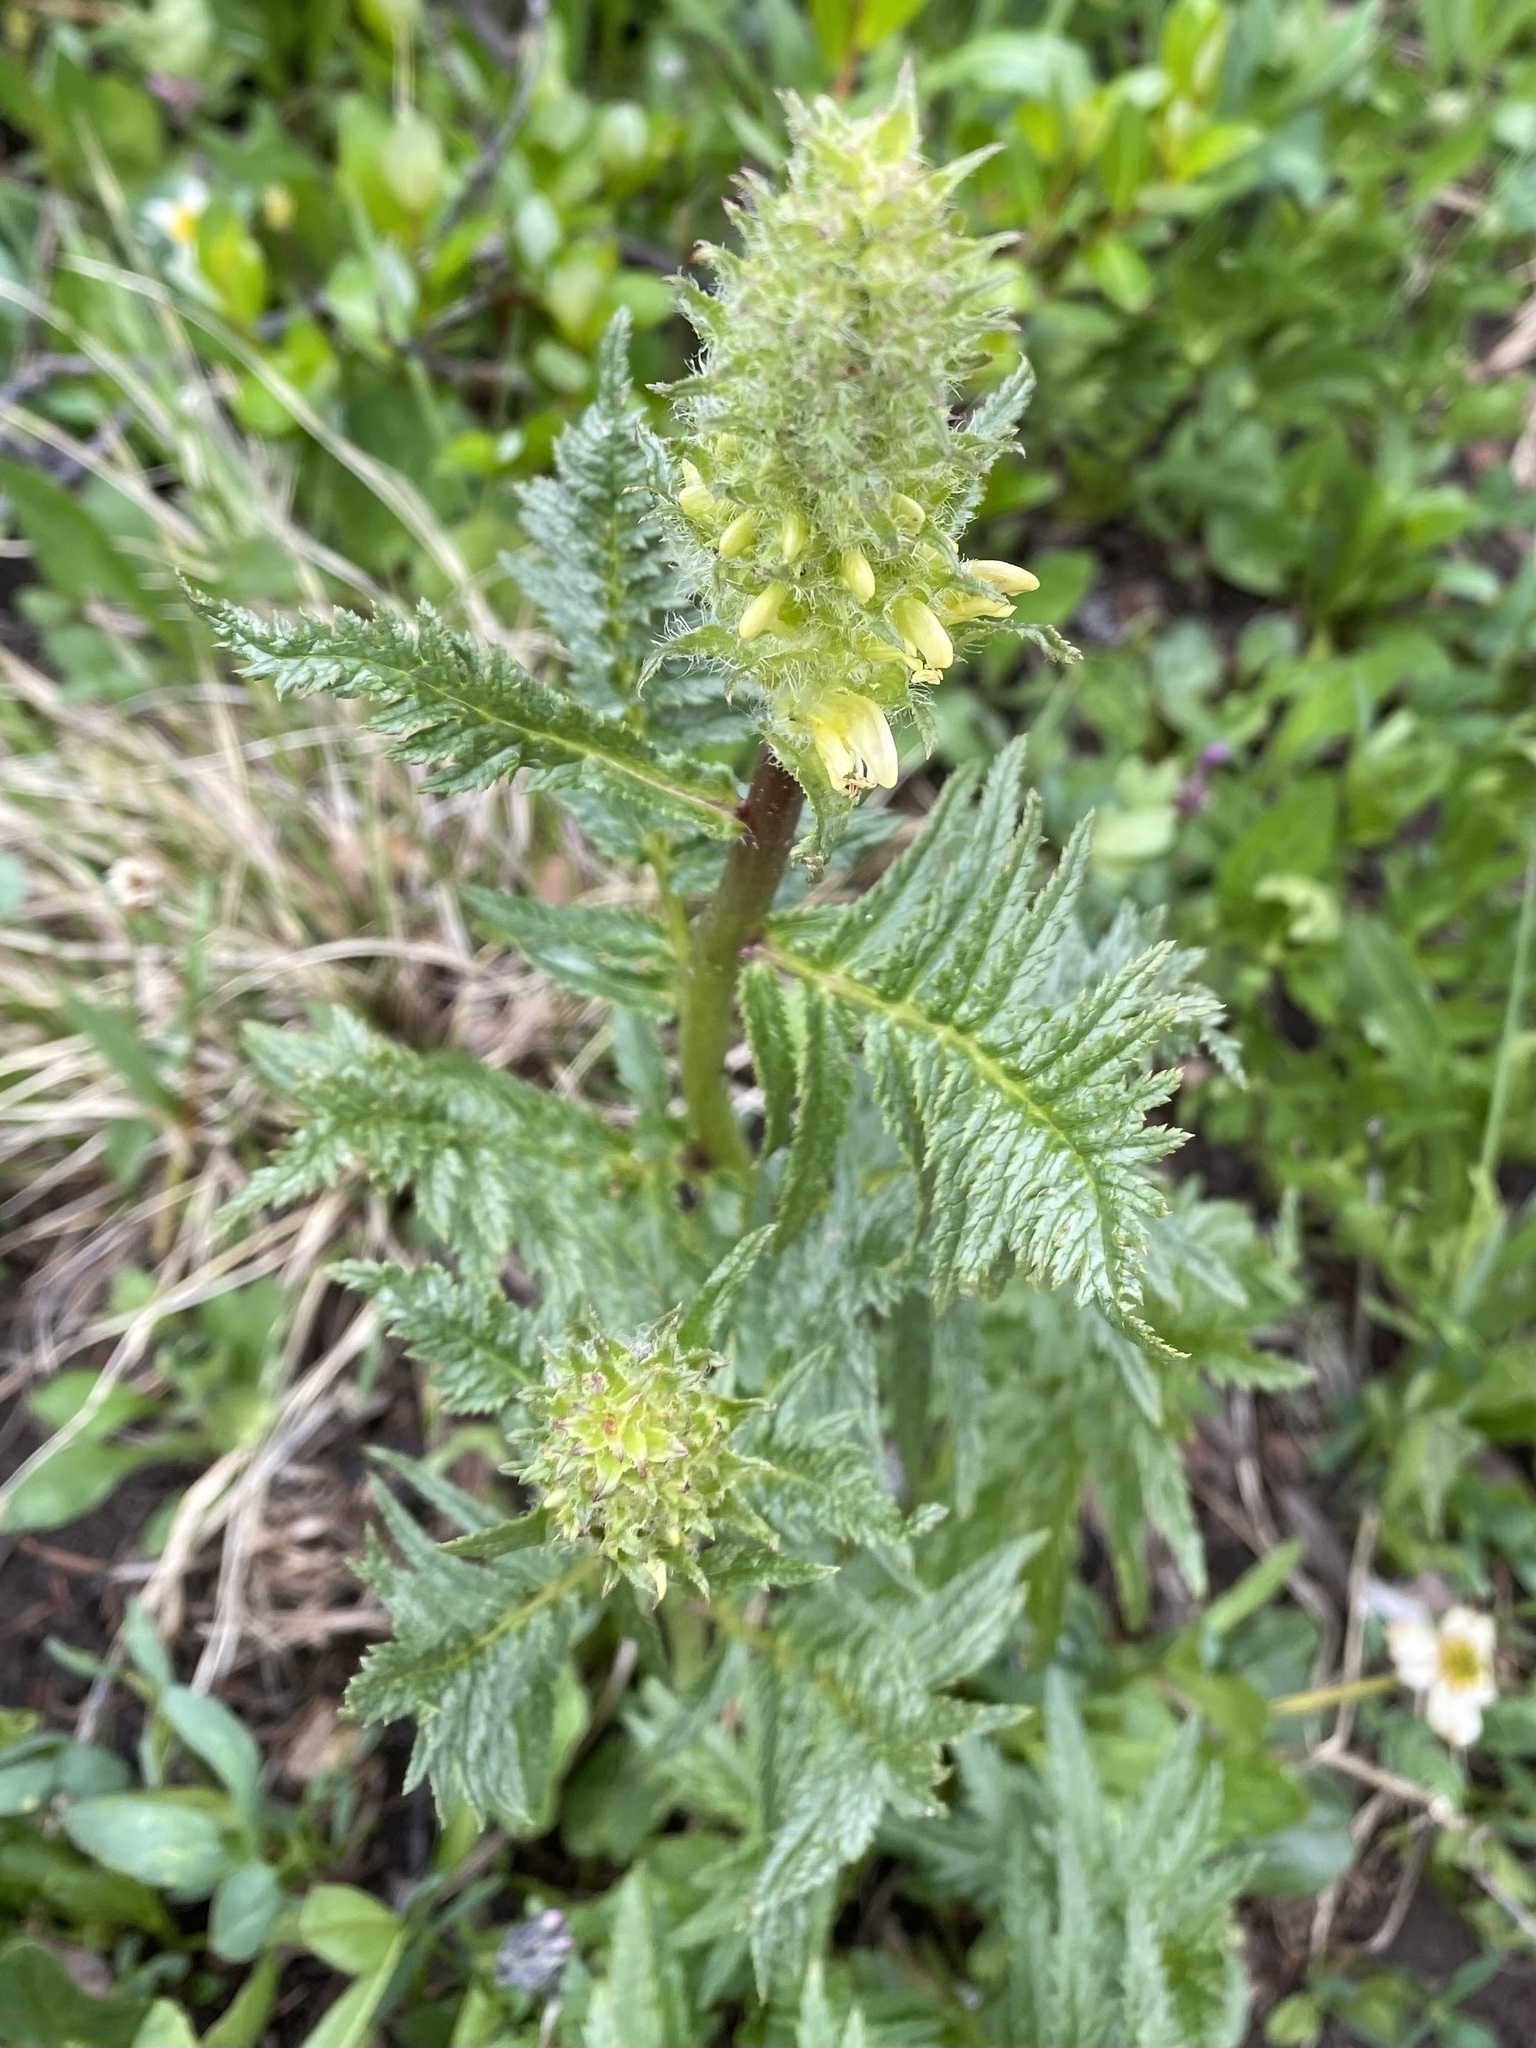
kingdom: Plantae
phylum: Tracheophyta
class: Magnoliopsida
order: Lamiales
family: Orobanchaceae
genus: Pedicularis
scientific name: Pedicularis bracteosa
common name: Bracted lousewort
